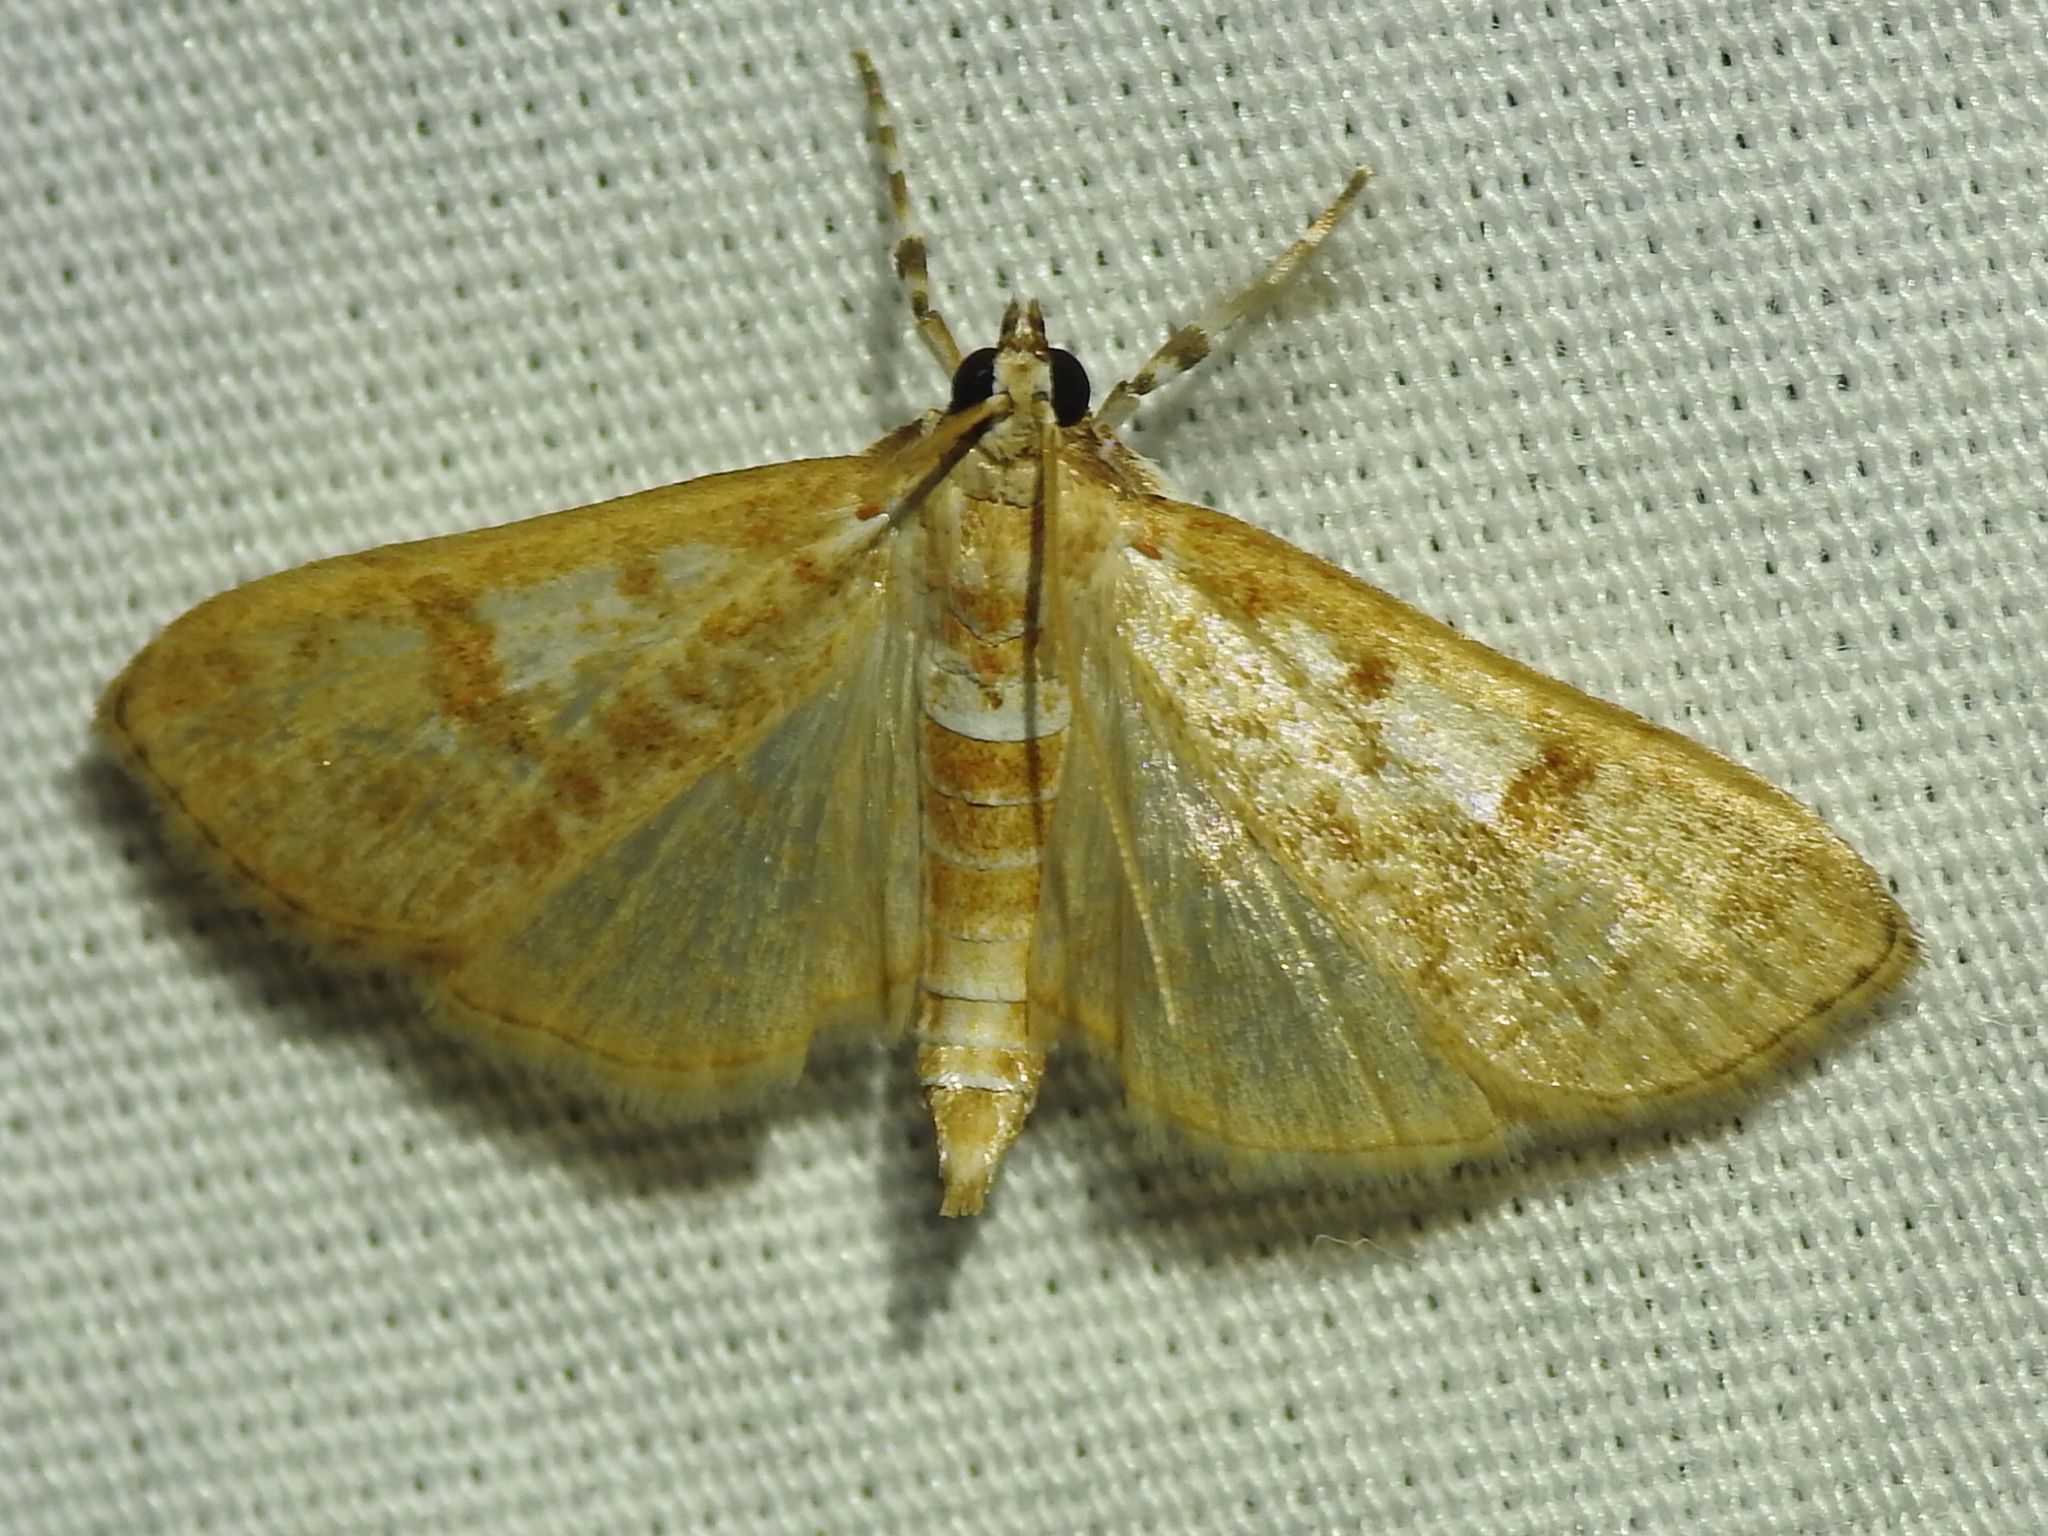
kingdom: Animalia
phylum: Arthropoda
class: Insecta
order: Lepidoptera
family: Crambidae
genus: Palpita
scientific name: Palpita freemanalis
